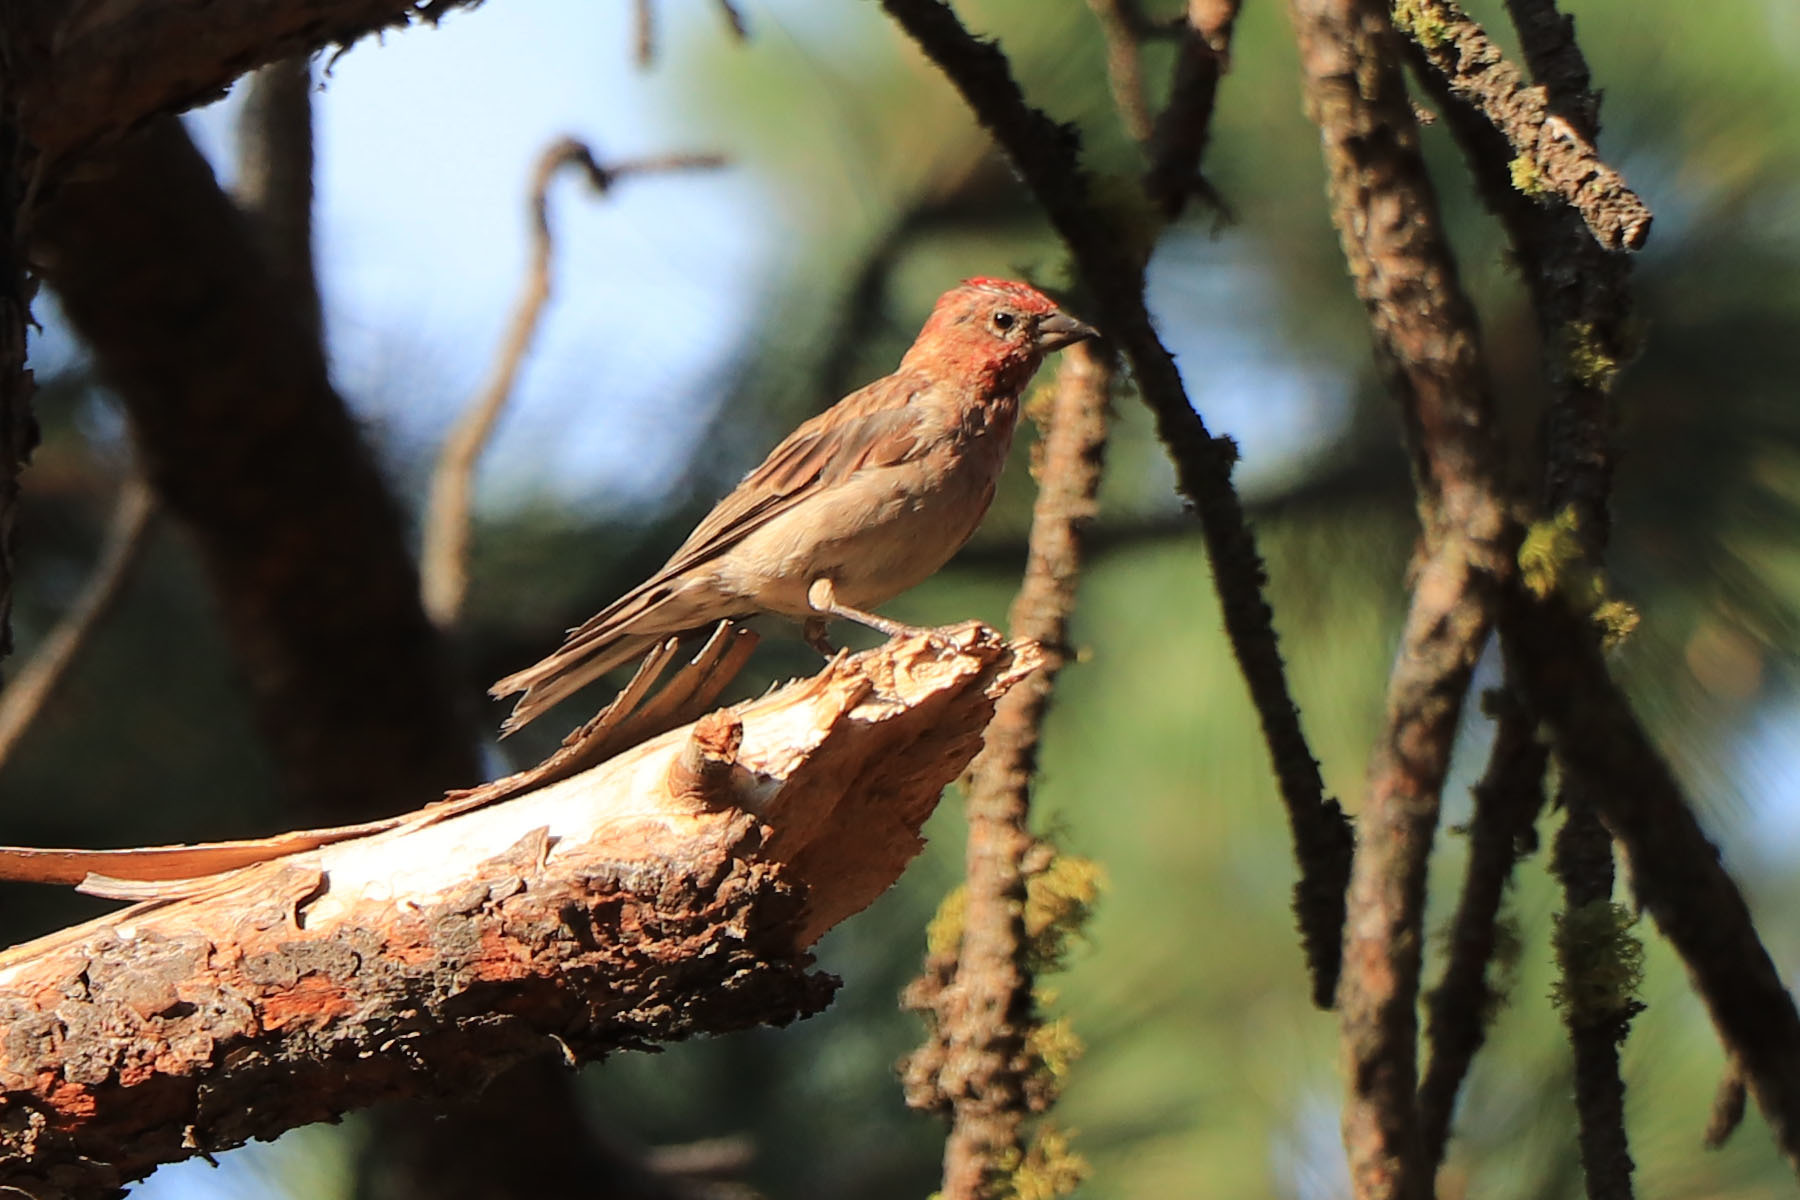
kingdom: Animalia
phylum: Chordata
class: Aves
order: Passeriformes
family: Fringillidae
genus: Haemorhous
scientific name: Haemorhous cassinii
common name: Cassin's finch
